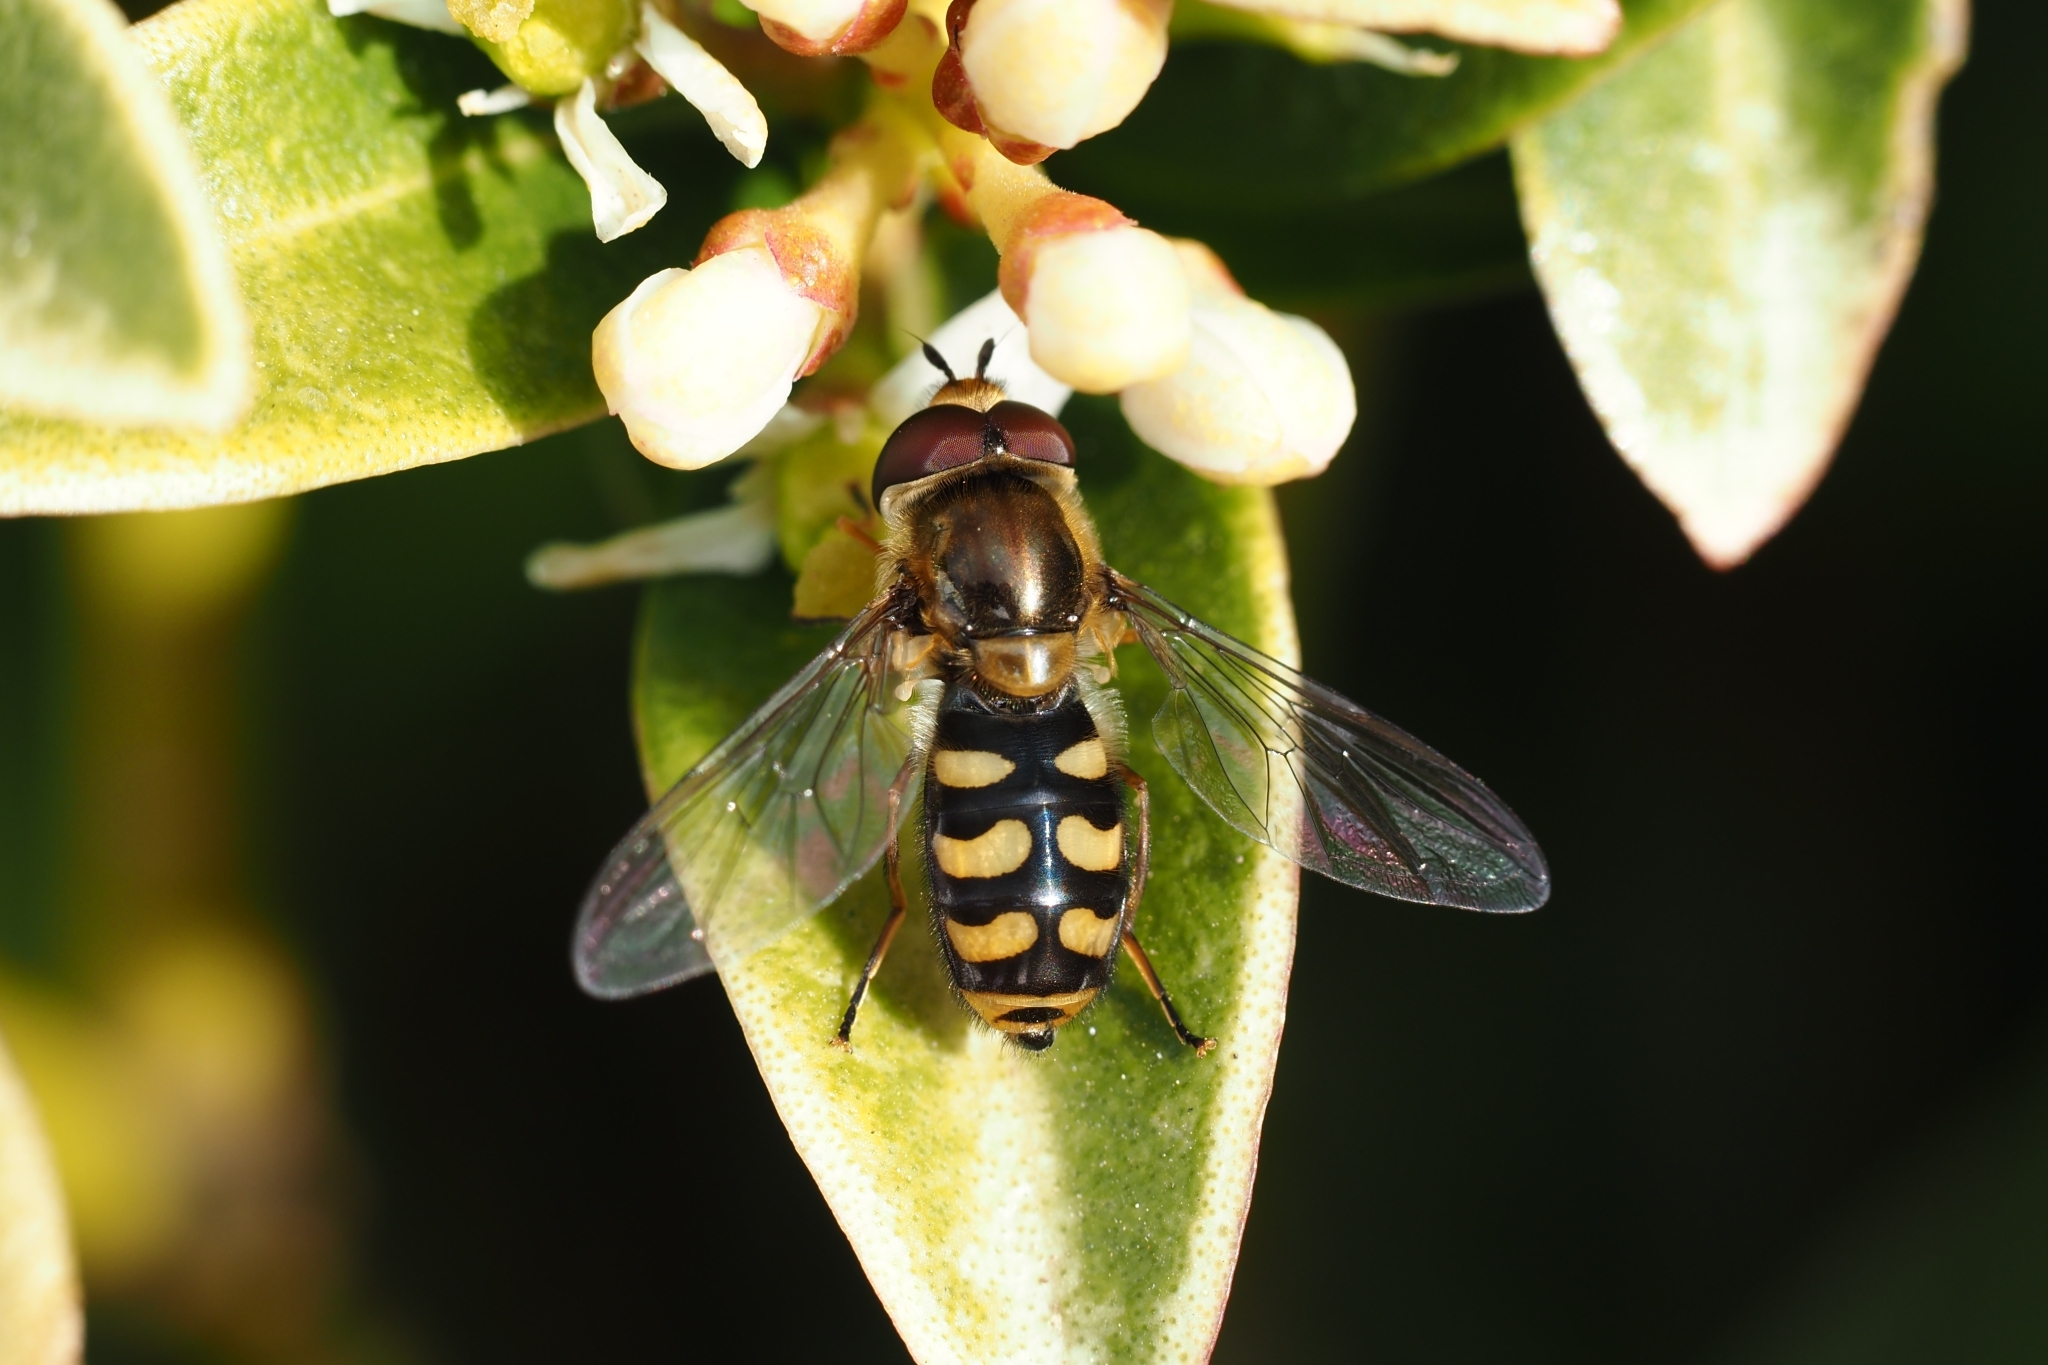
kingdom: Animalia
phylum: Arthropoda
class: Insecta
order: Diptera
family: Syrphidae
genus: Eupeodes
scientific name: Eupeodes
